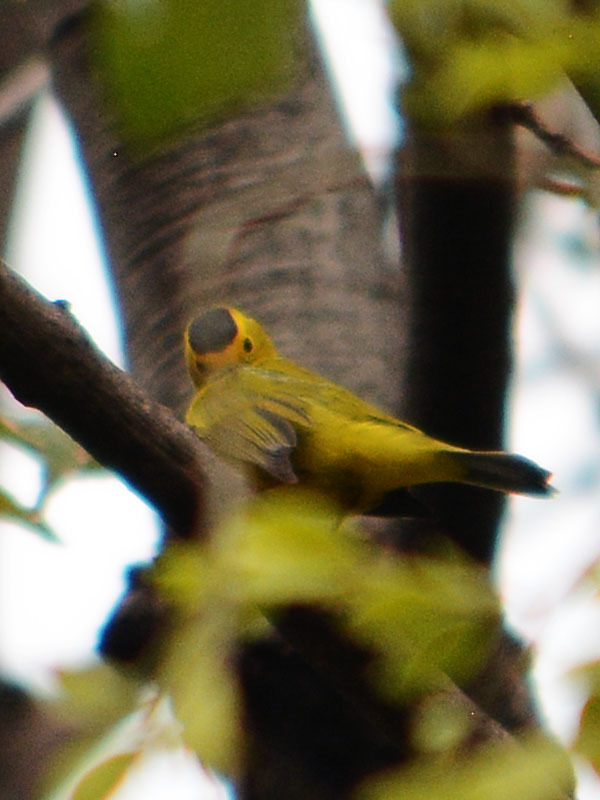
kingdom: Animalia
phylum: Chordata
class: Aves
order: Passeriformes
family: Parulidae
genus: Cardellina
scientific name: Cardellina pusilla
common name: Wilson's warbler
